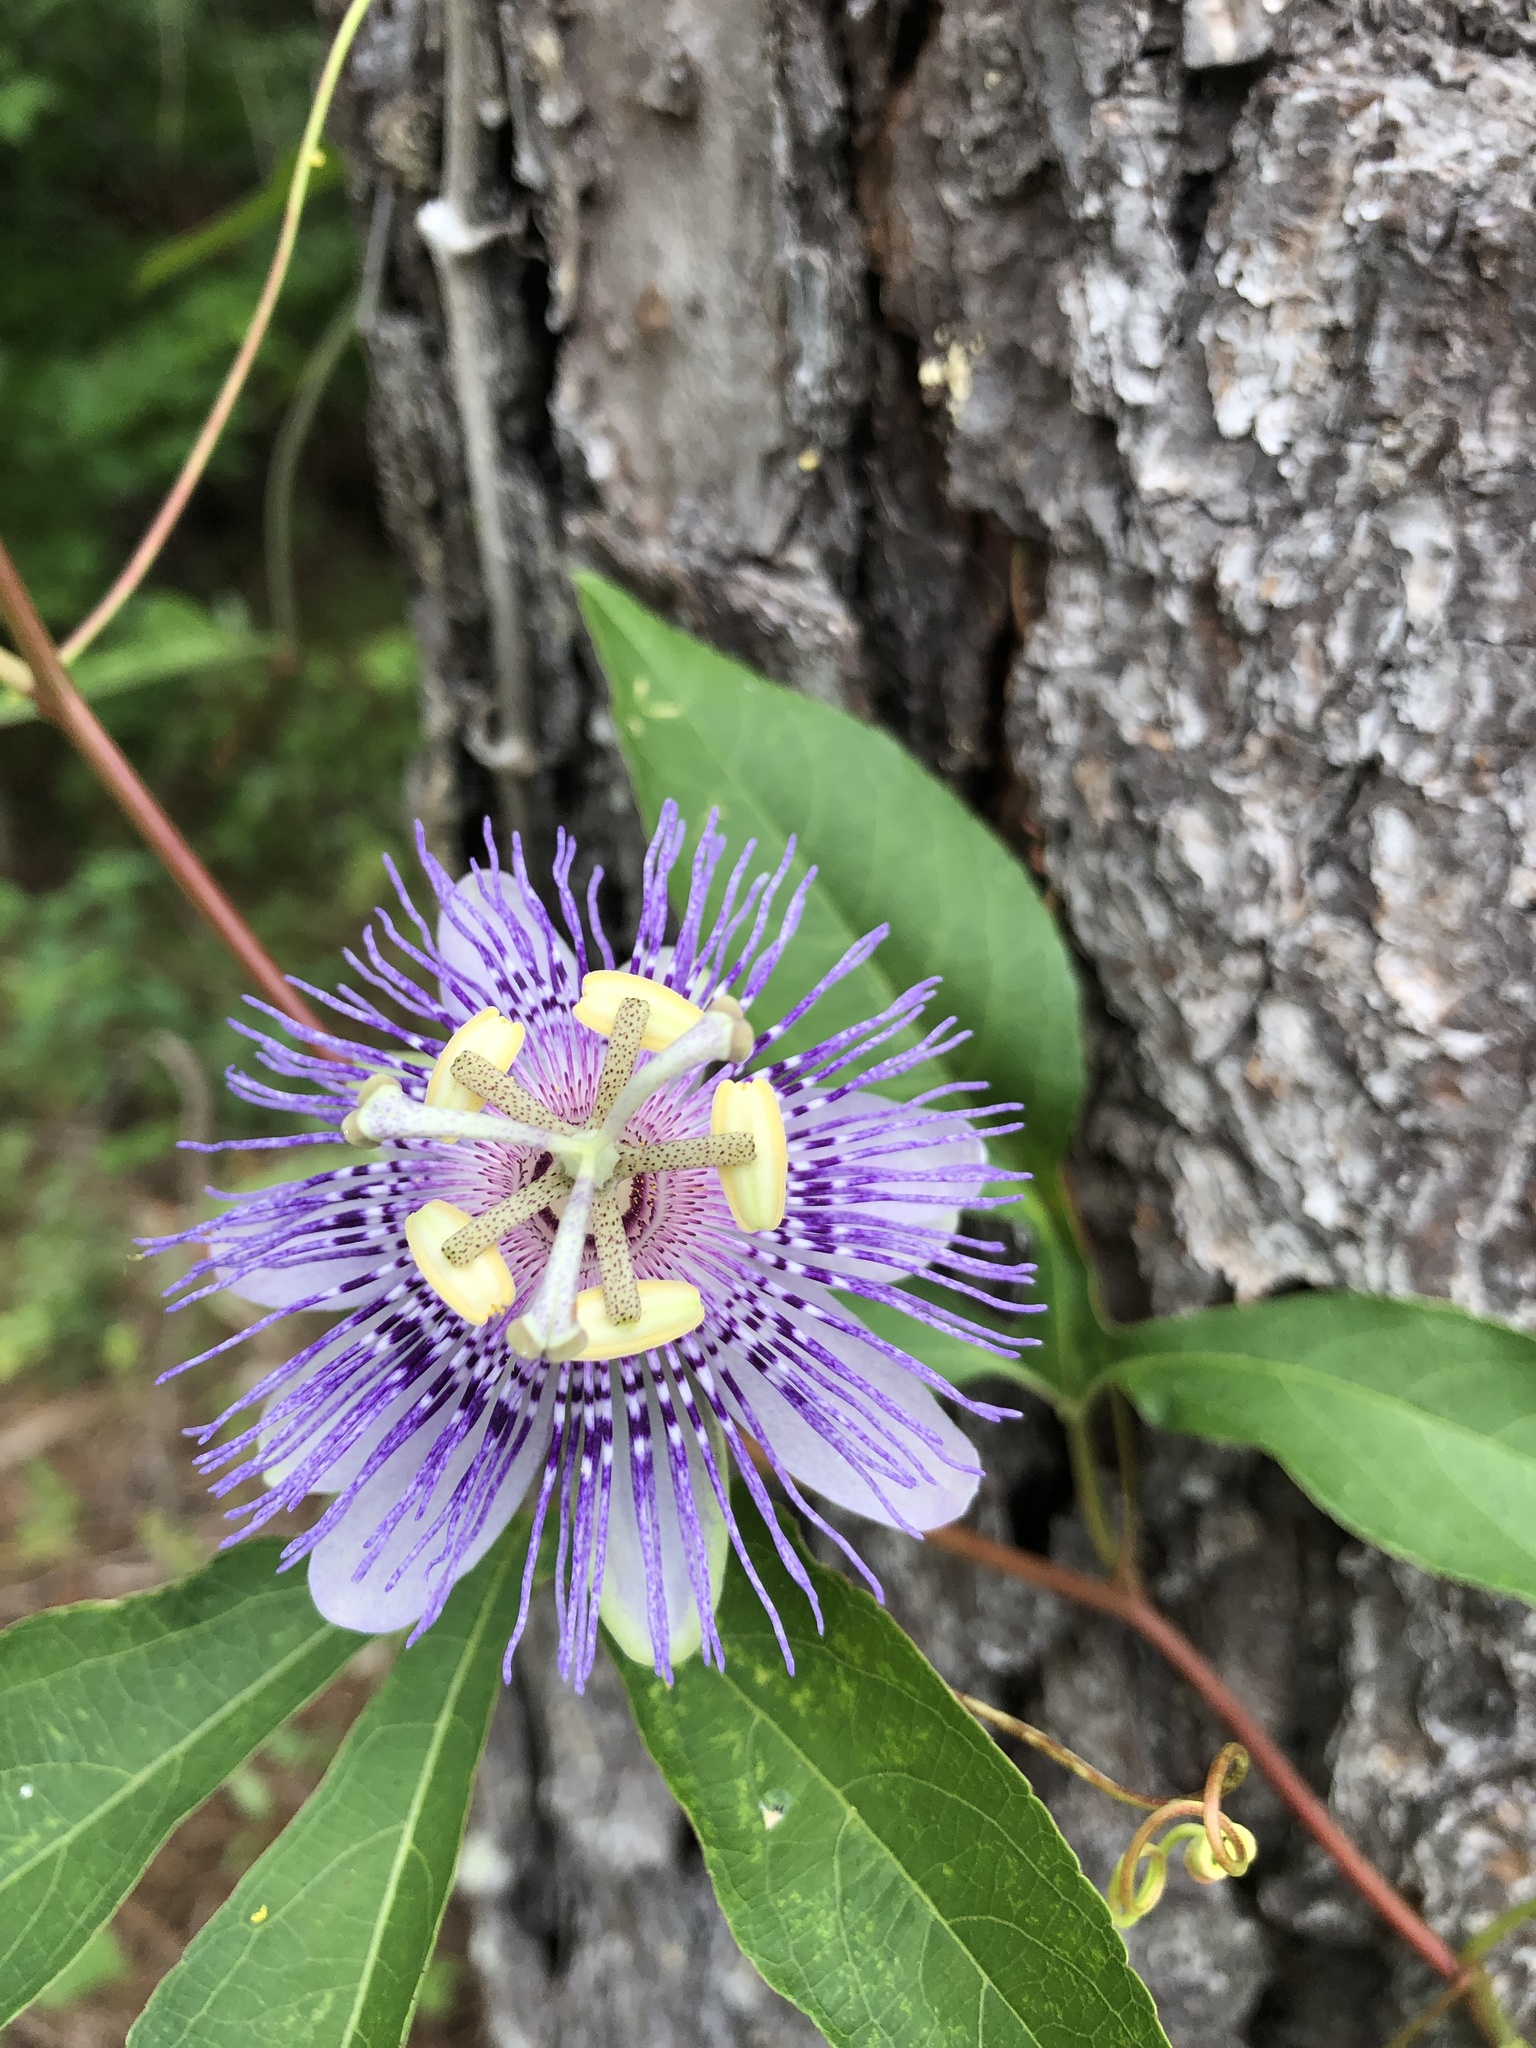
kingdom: Plantae
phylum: Tracheophyta
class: Magnoliopsida
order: Malpighiales
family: Passifloraceae
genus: Passiflora
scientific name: Passiflora incarnata
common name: Apricot-vine
